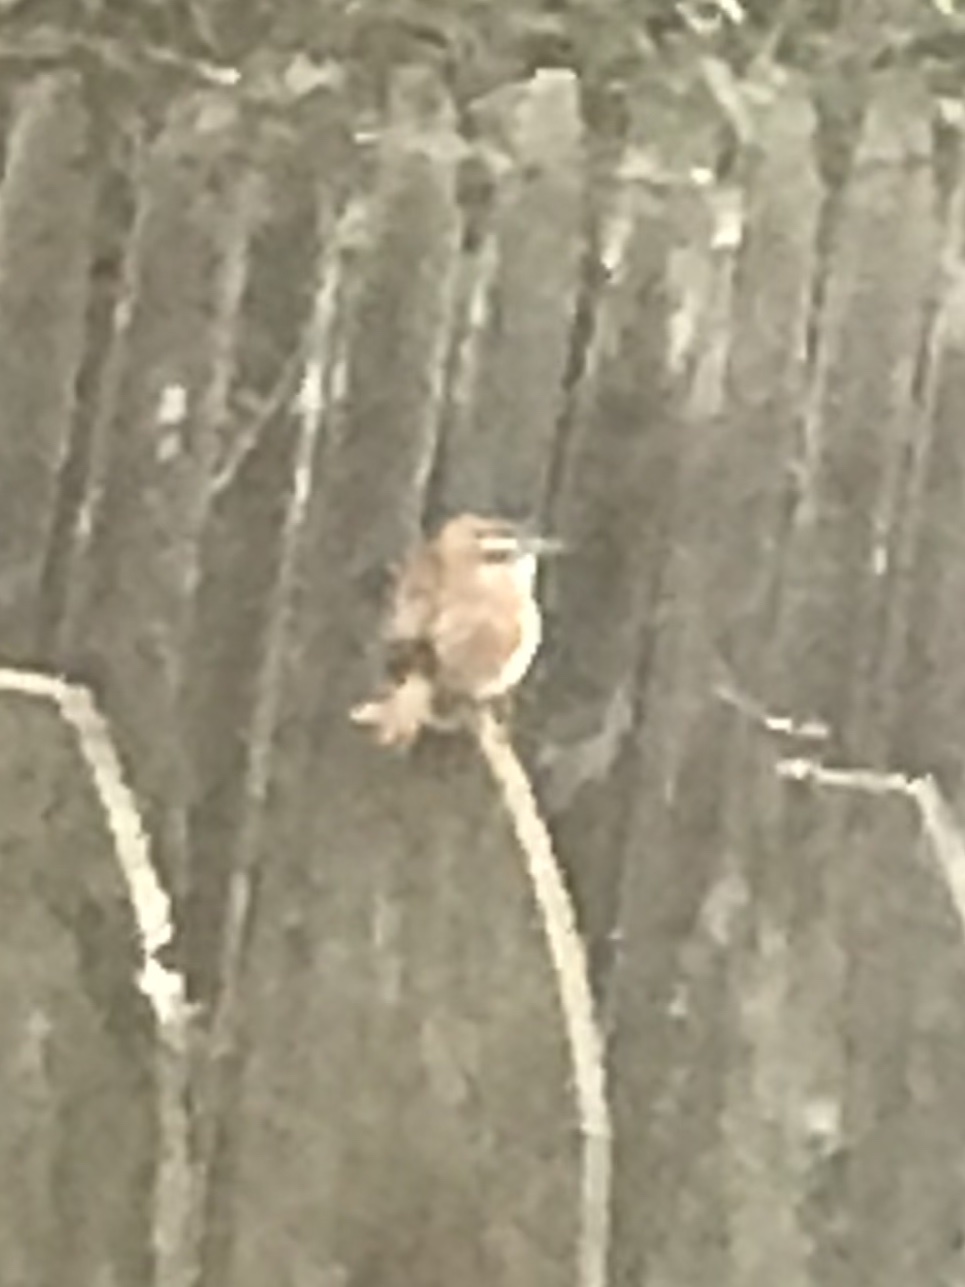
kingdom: Animalia
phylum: Chordata
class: Aves
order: Passeriformes
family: Troglodytidae
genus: Thryothorus
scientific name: Thryothorus ludovicianus
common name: Carolina wren
